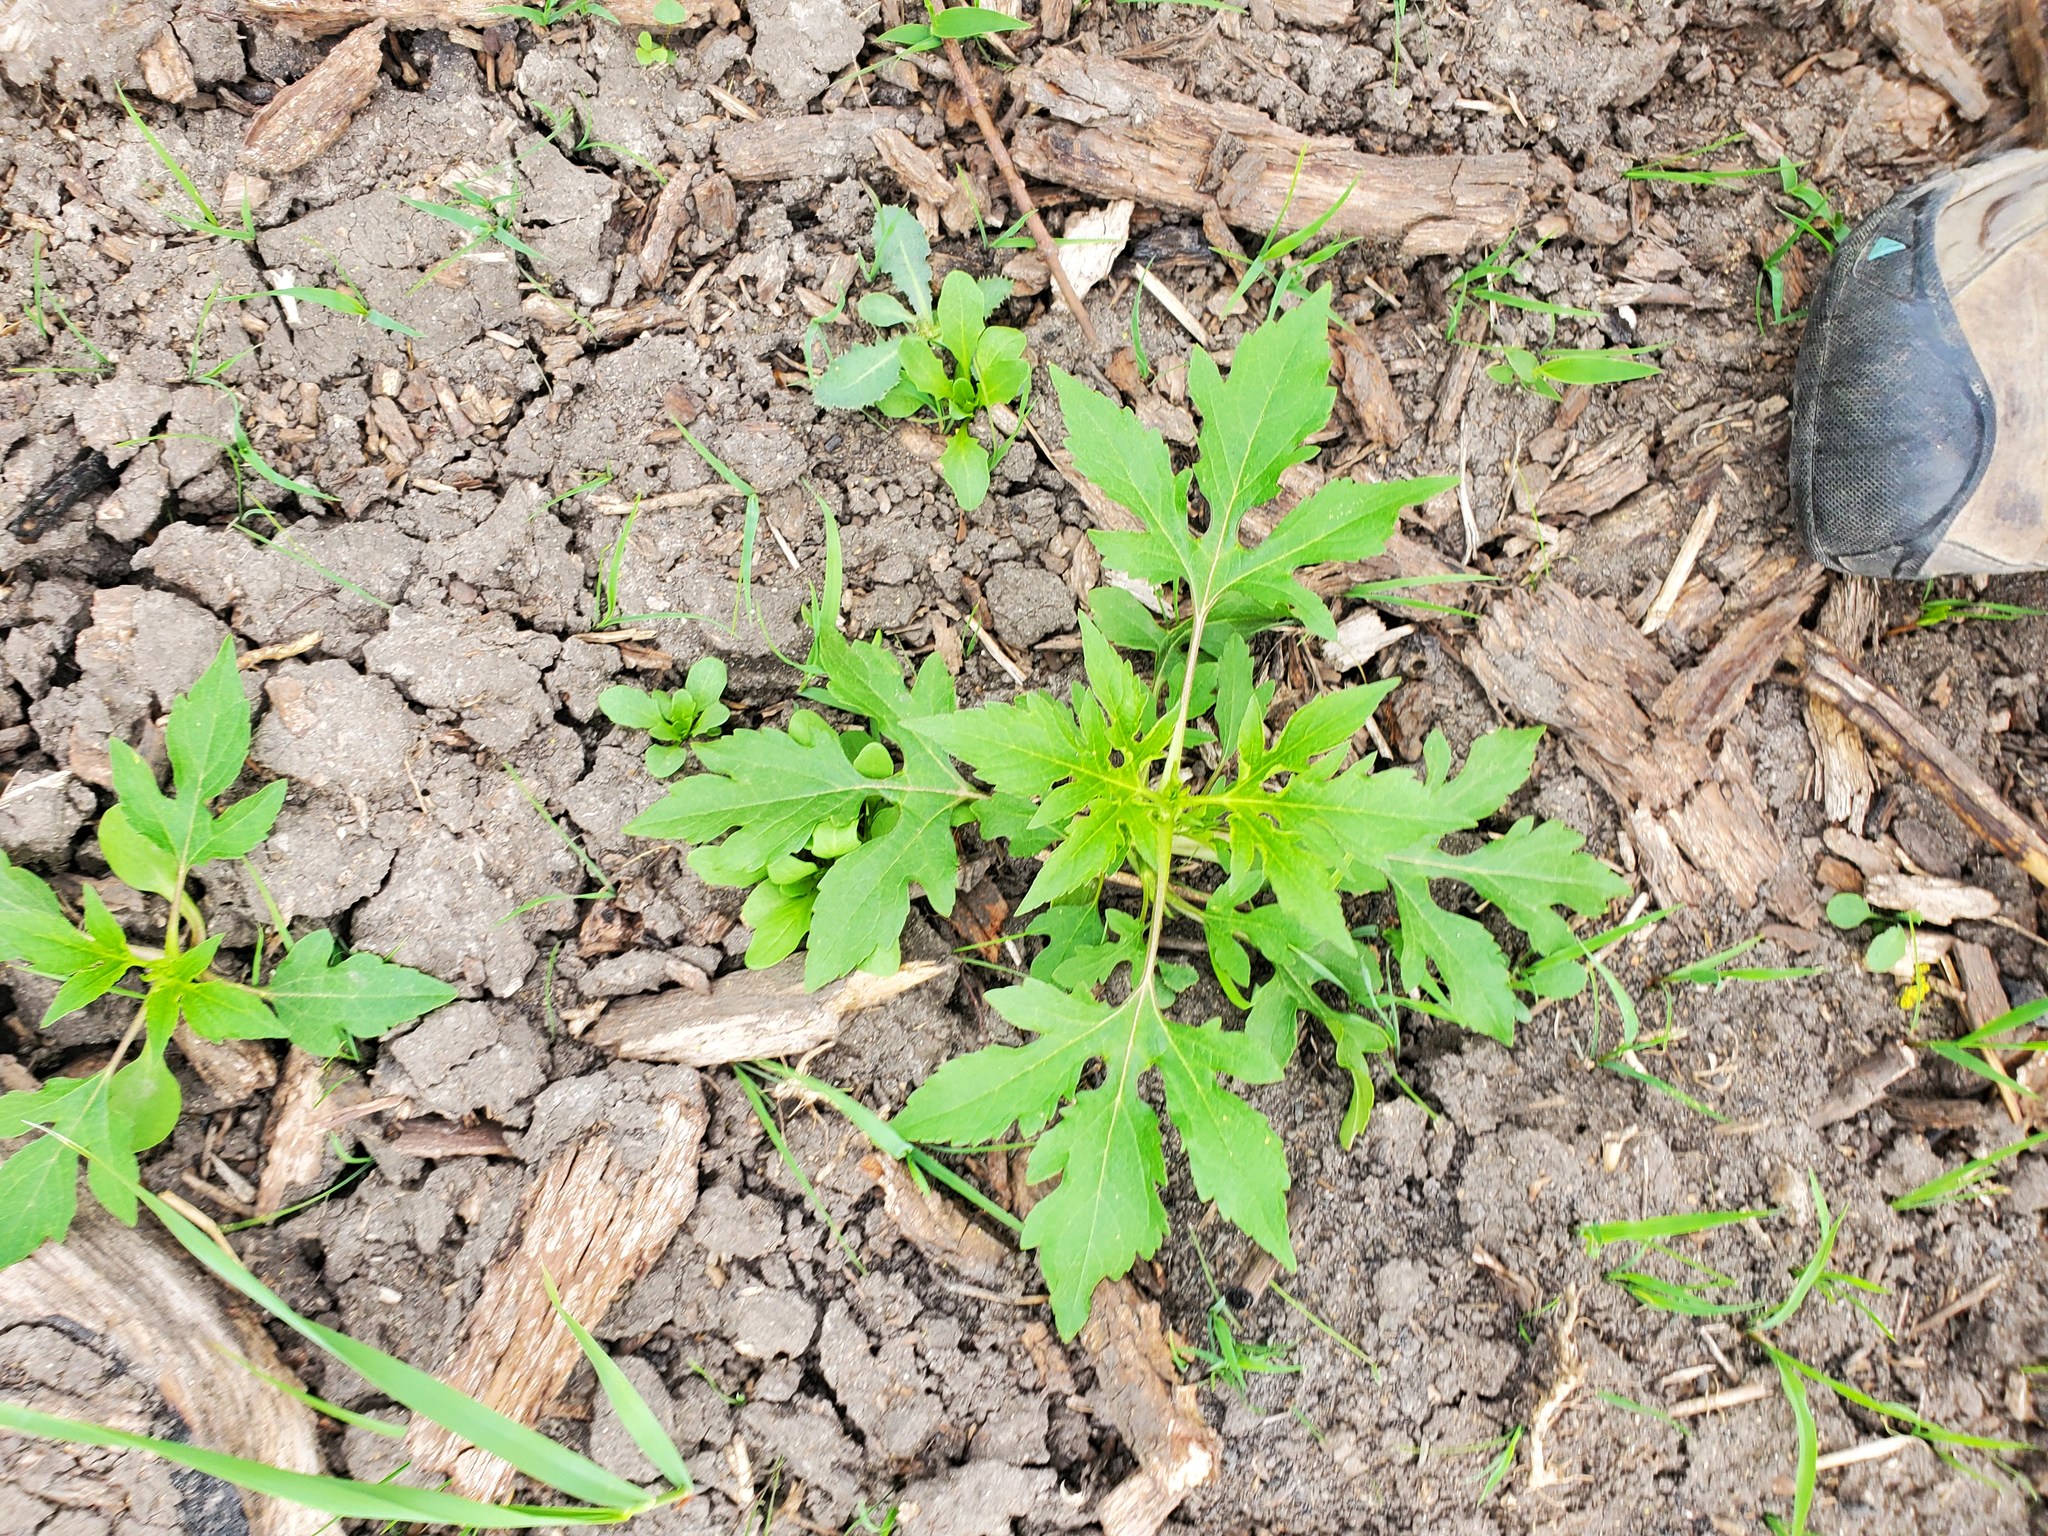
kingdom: Plantae
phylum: Tracheophyta
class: Magnoliopsida
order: Asterales
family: Asteraceae
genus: Ambrosia
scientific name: Ambrosia trifida
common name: Giant ragweed
